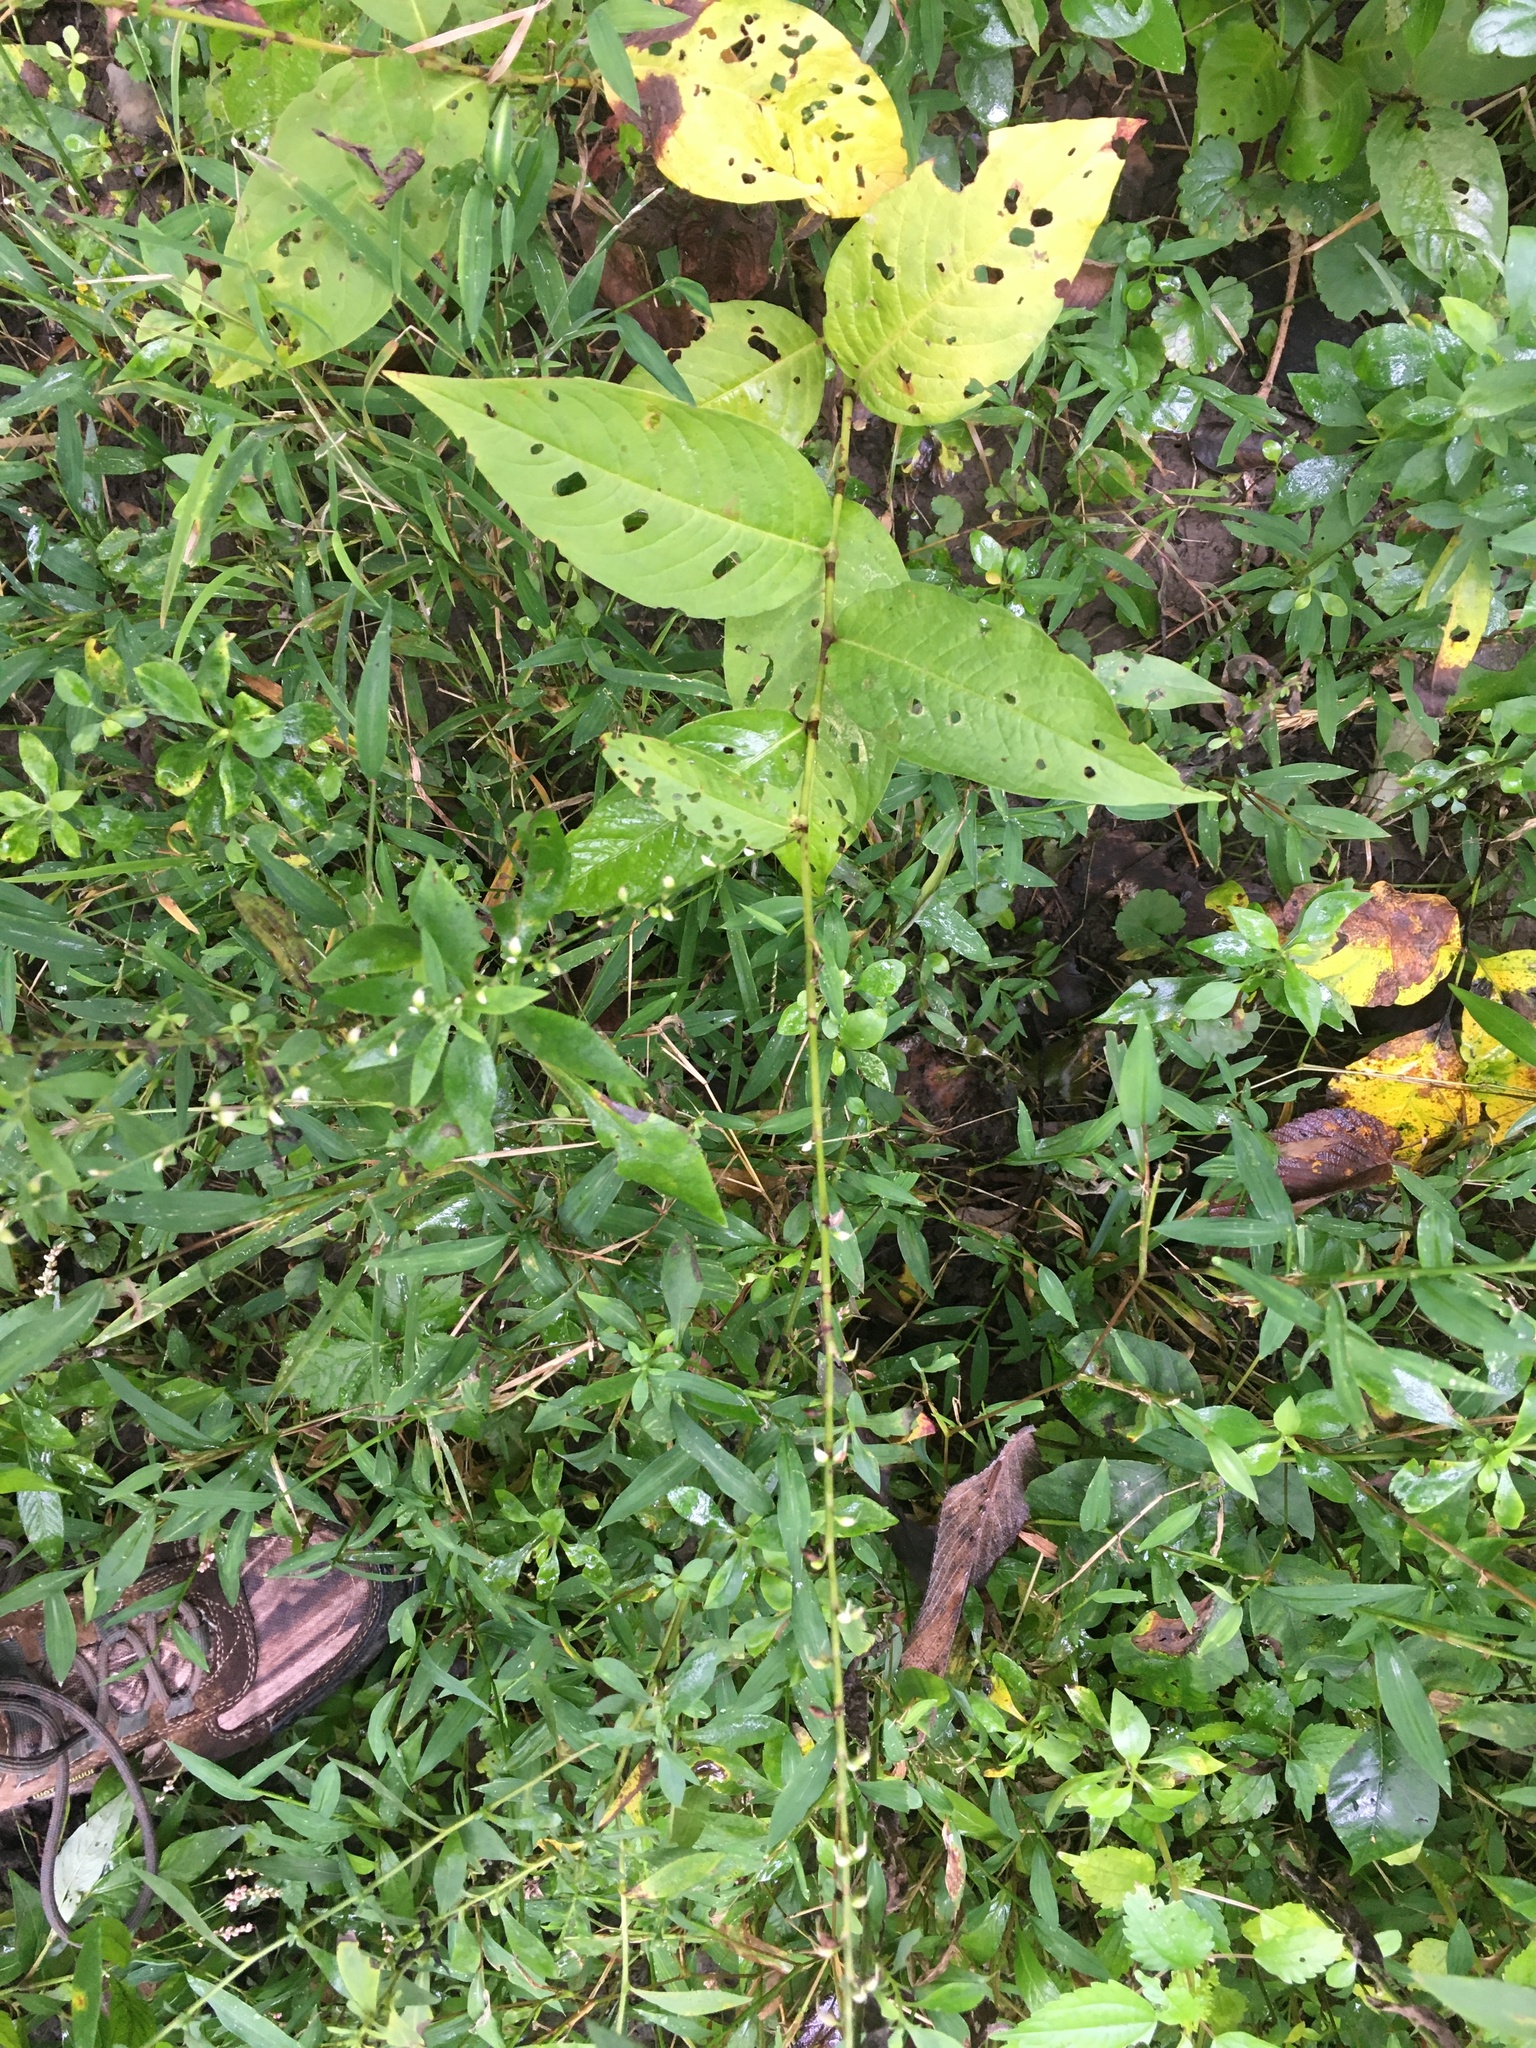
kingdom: Plantae
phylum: Tracheophyta
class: Magnoliopsida
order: Caryophyllales
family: Polygonaceae
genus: Persicaria
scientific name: Persicaria virginiana
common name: Jumpseed
